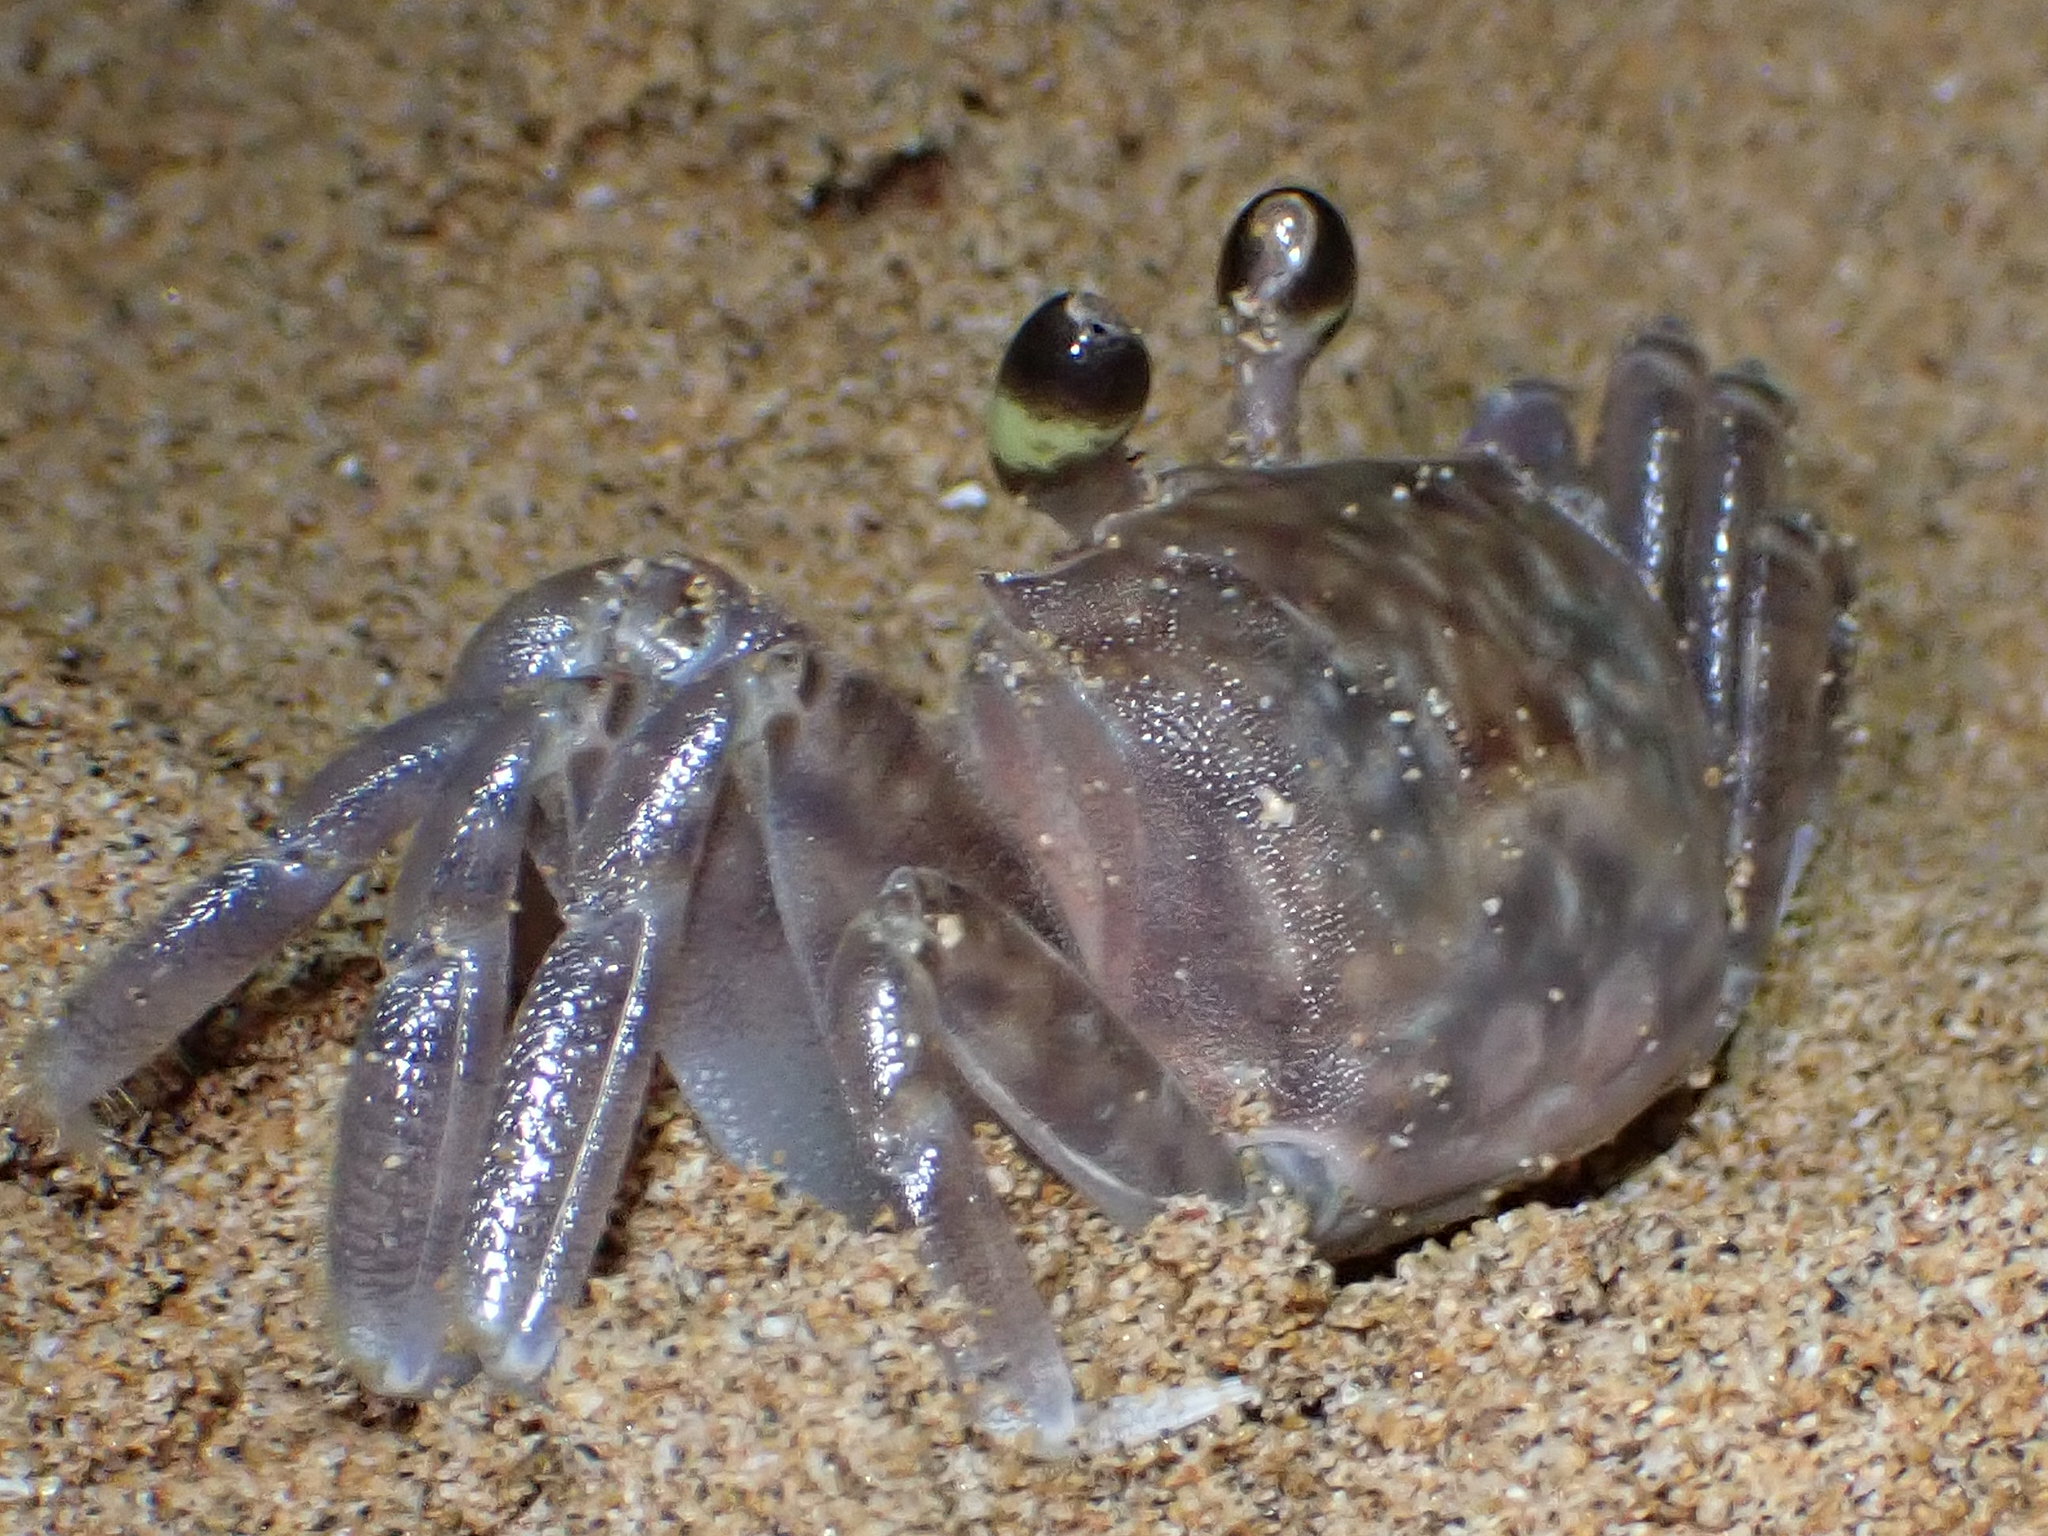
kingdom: Animalia
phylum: Arthropoda
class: Malacostraca
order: Decapoda
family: Ocypodidae
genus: Ocypode
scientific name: Ocypode pallidula
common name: Pallid ghost crab
